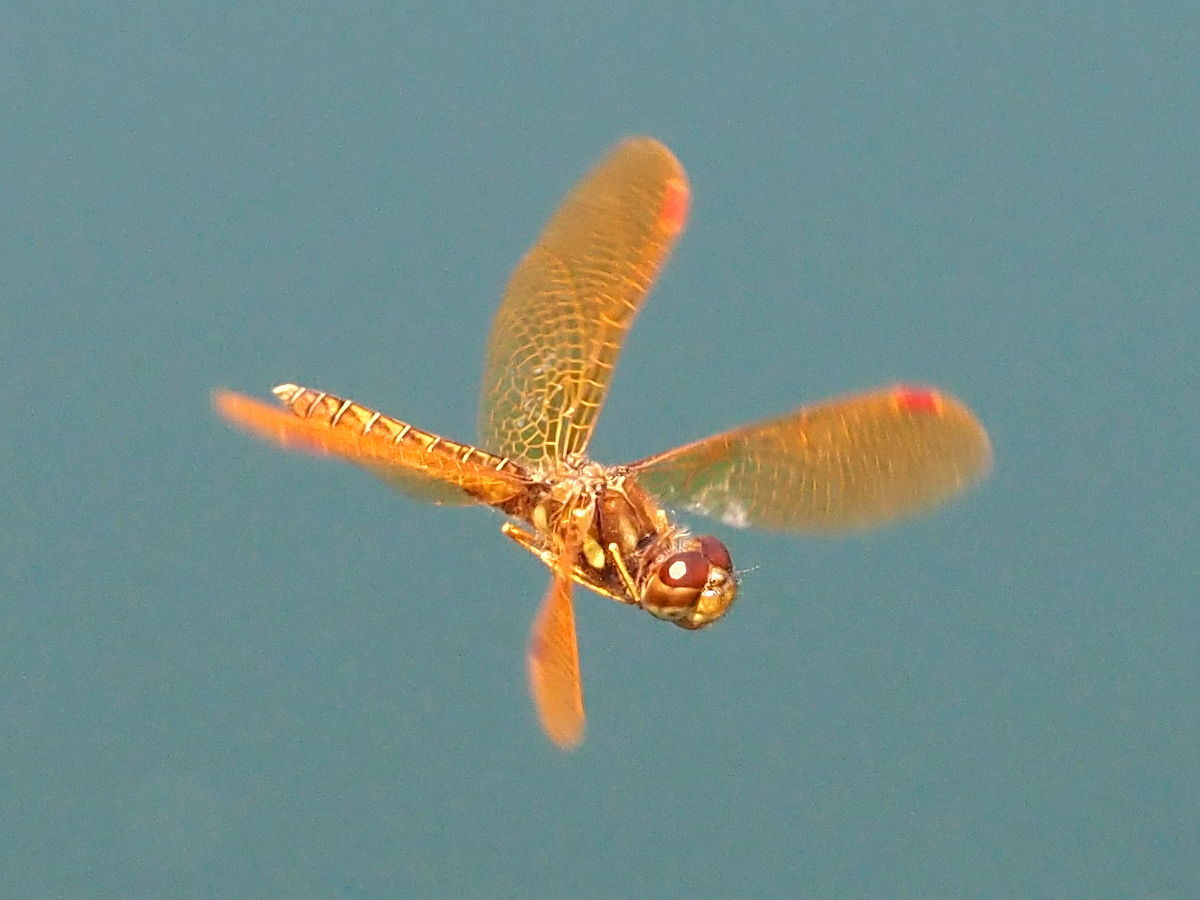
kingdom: Animalia
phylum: Arthropoda
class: Insecta
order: Odonata
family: Libellulidae
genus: Perithemis
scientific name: Perithemis tenera
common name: Eastern amberwing
